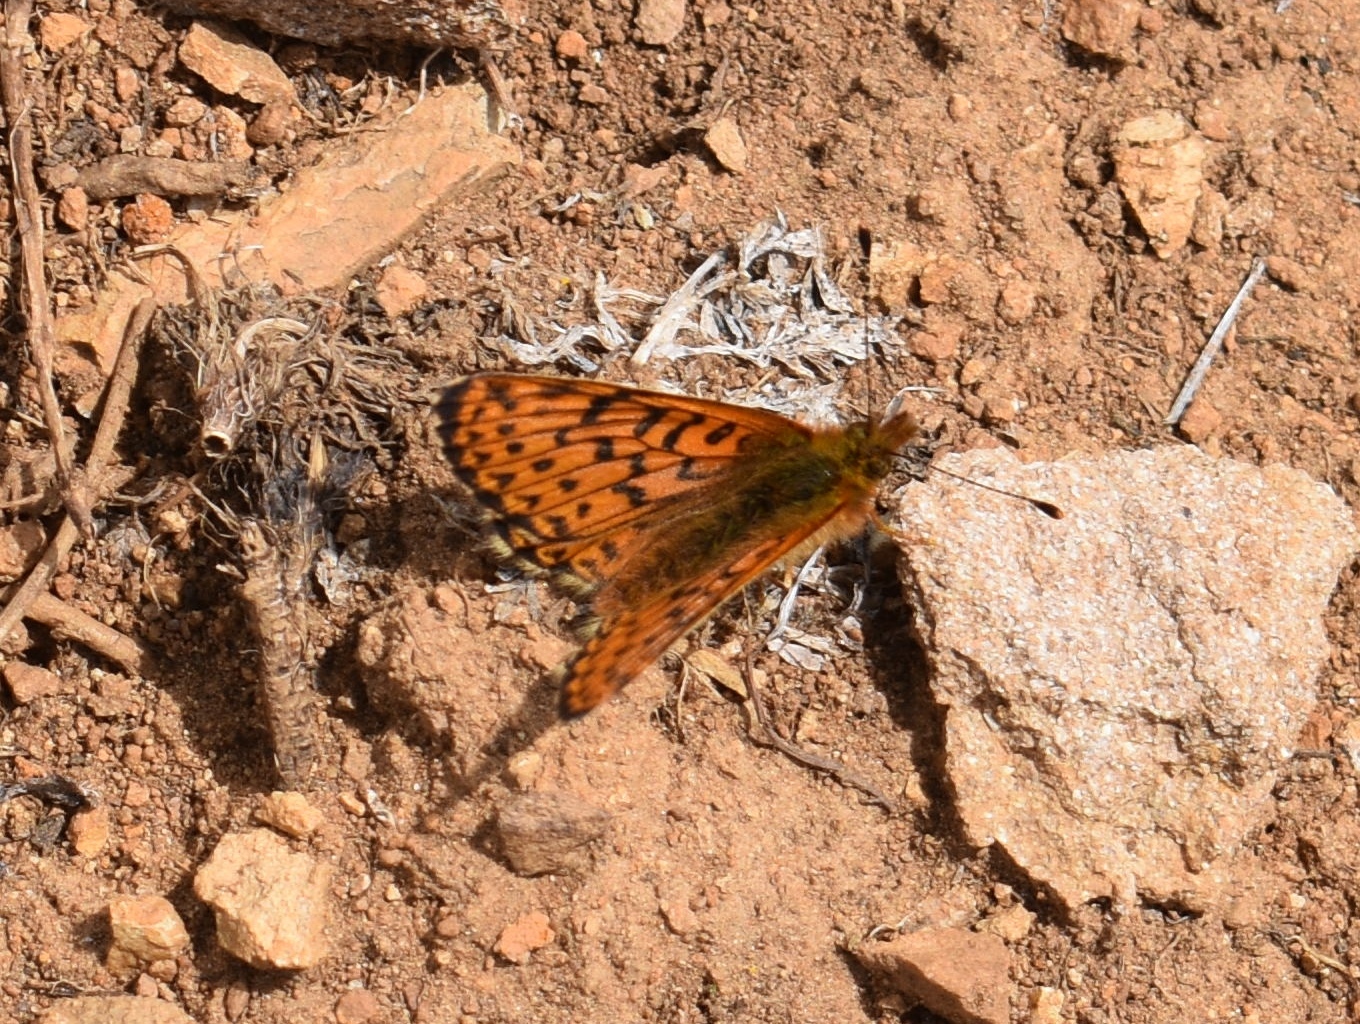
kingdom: Animalia
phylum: Arthropoda
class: Insecta
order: Lepidoptera
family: Nymphalidae
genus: Boloria
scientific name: Boloria chariclea
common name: Arctic fritillary
